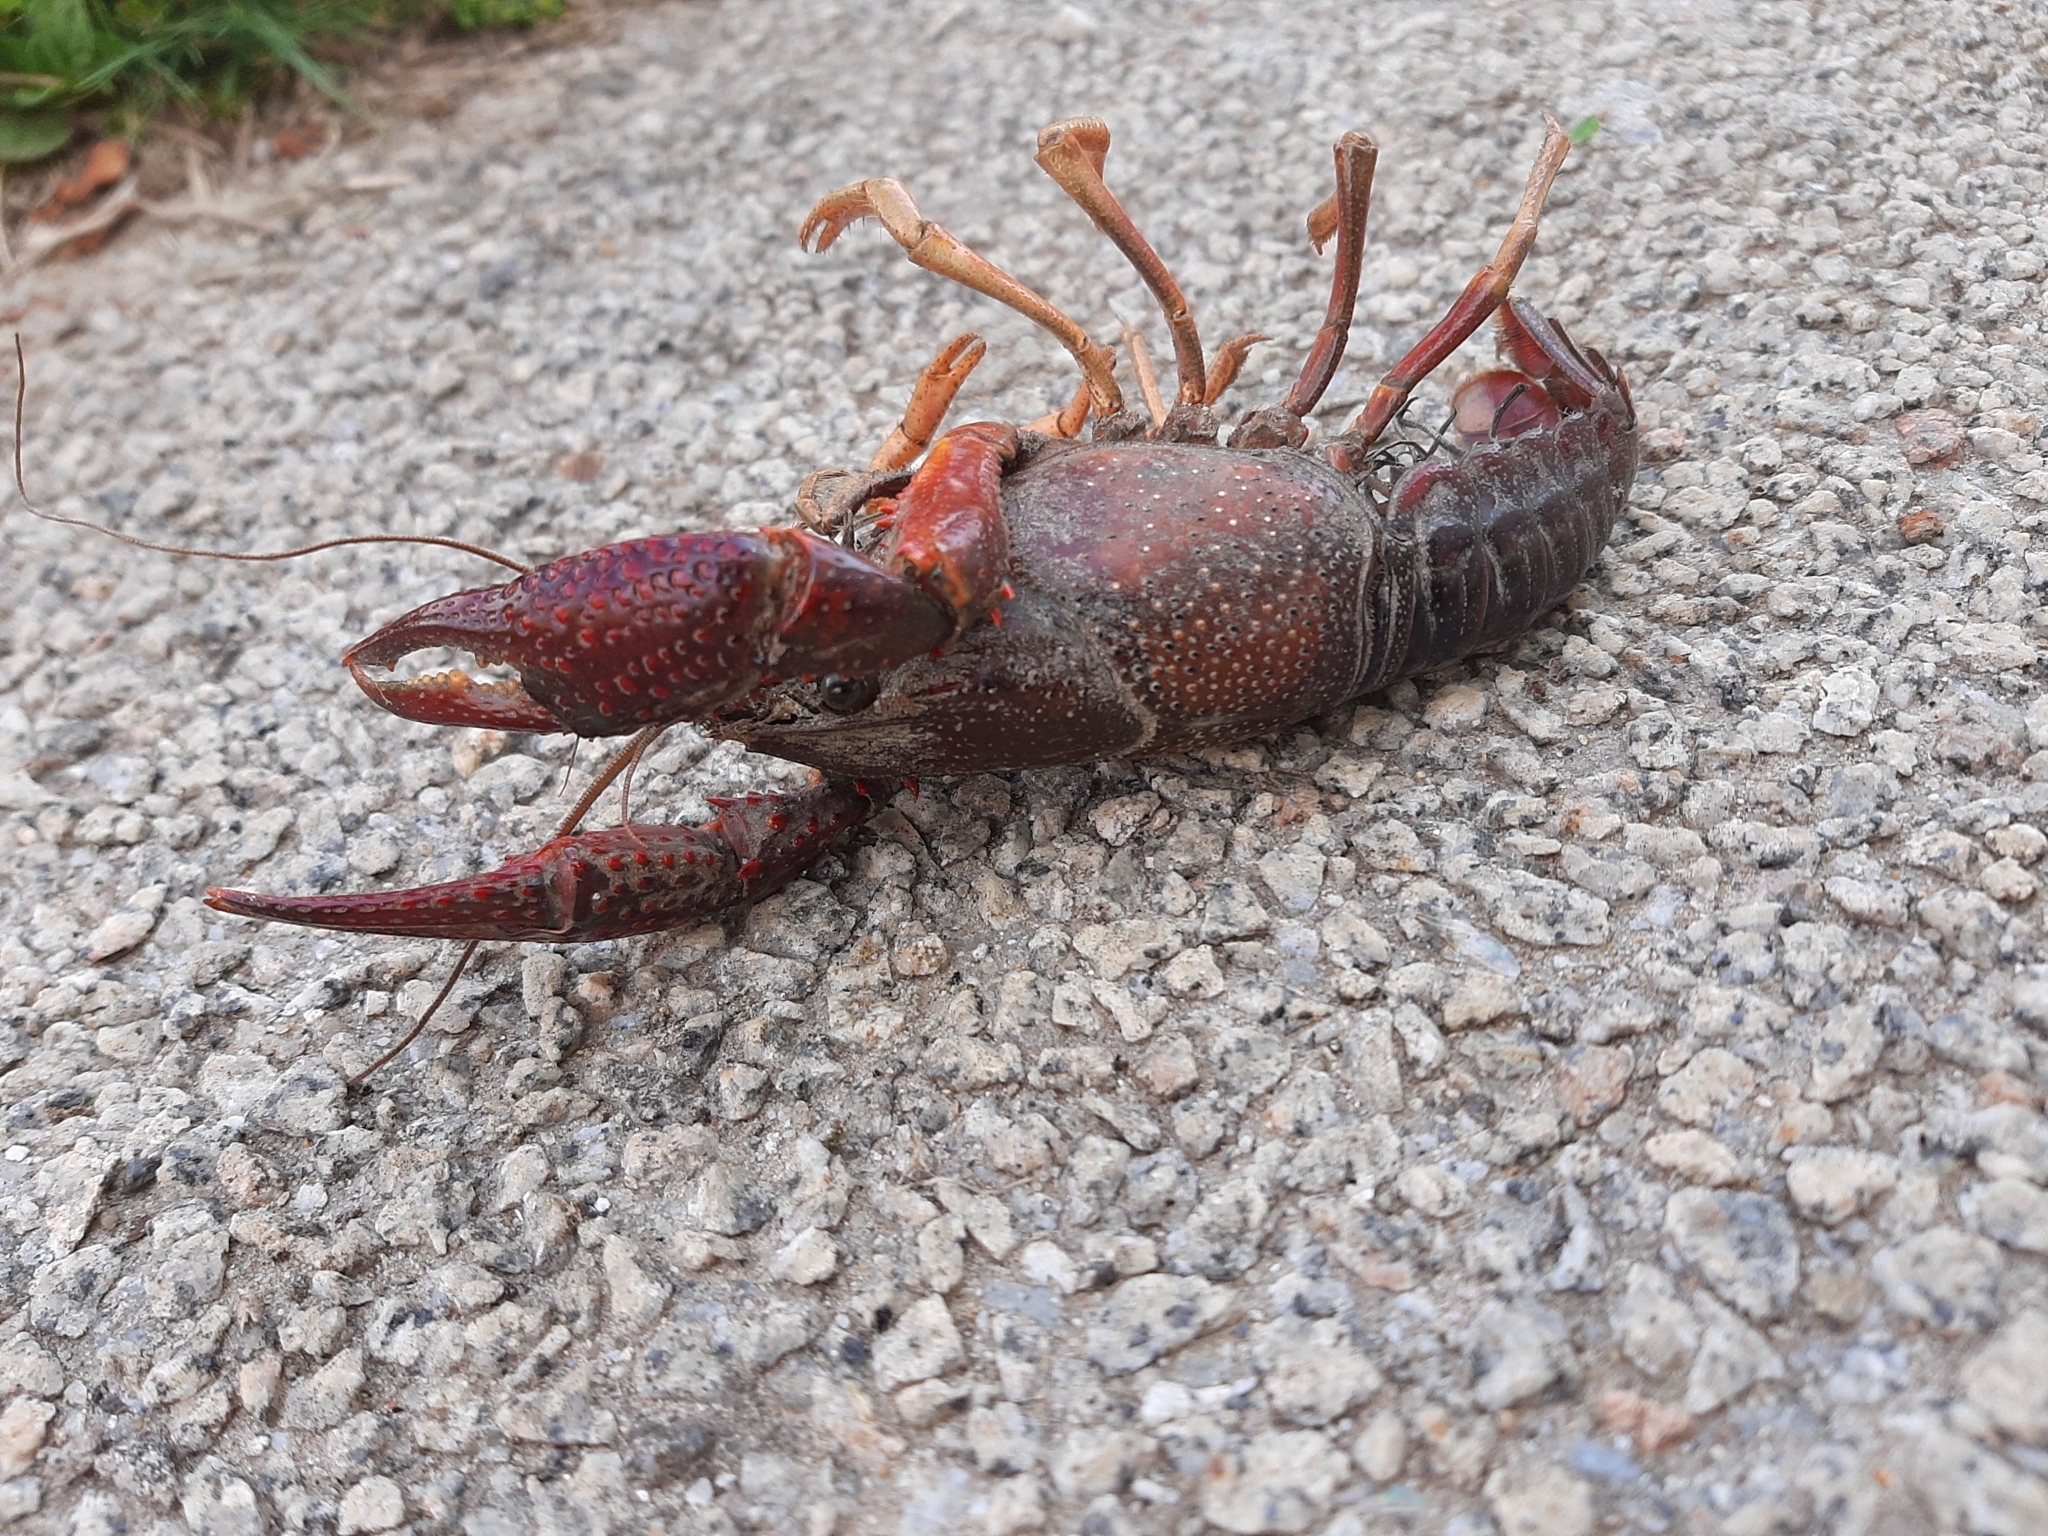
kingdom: Animalia
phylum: Arthropoda
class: Malacostraca
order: Decapoda
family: Cambaridae
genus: Procambarus
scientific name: Procambarus clarkii
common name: Red swamp crayfish
